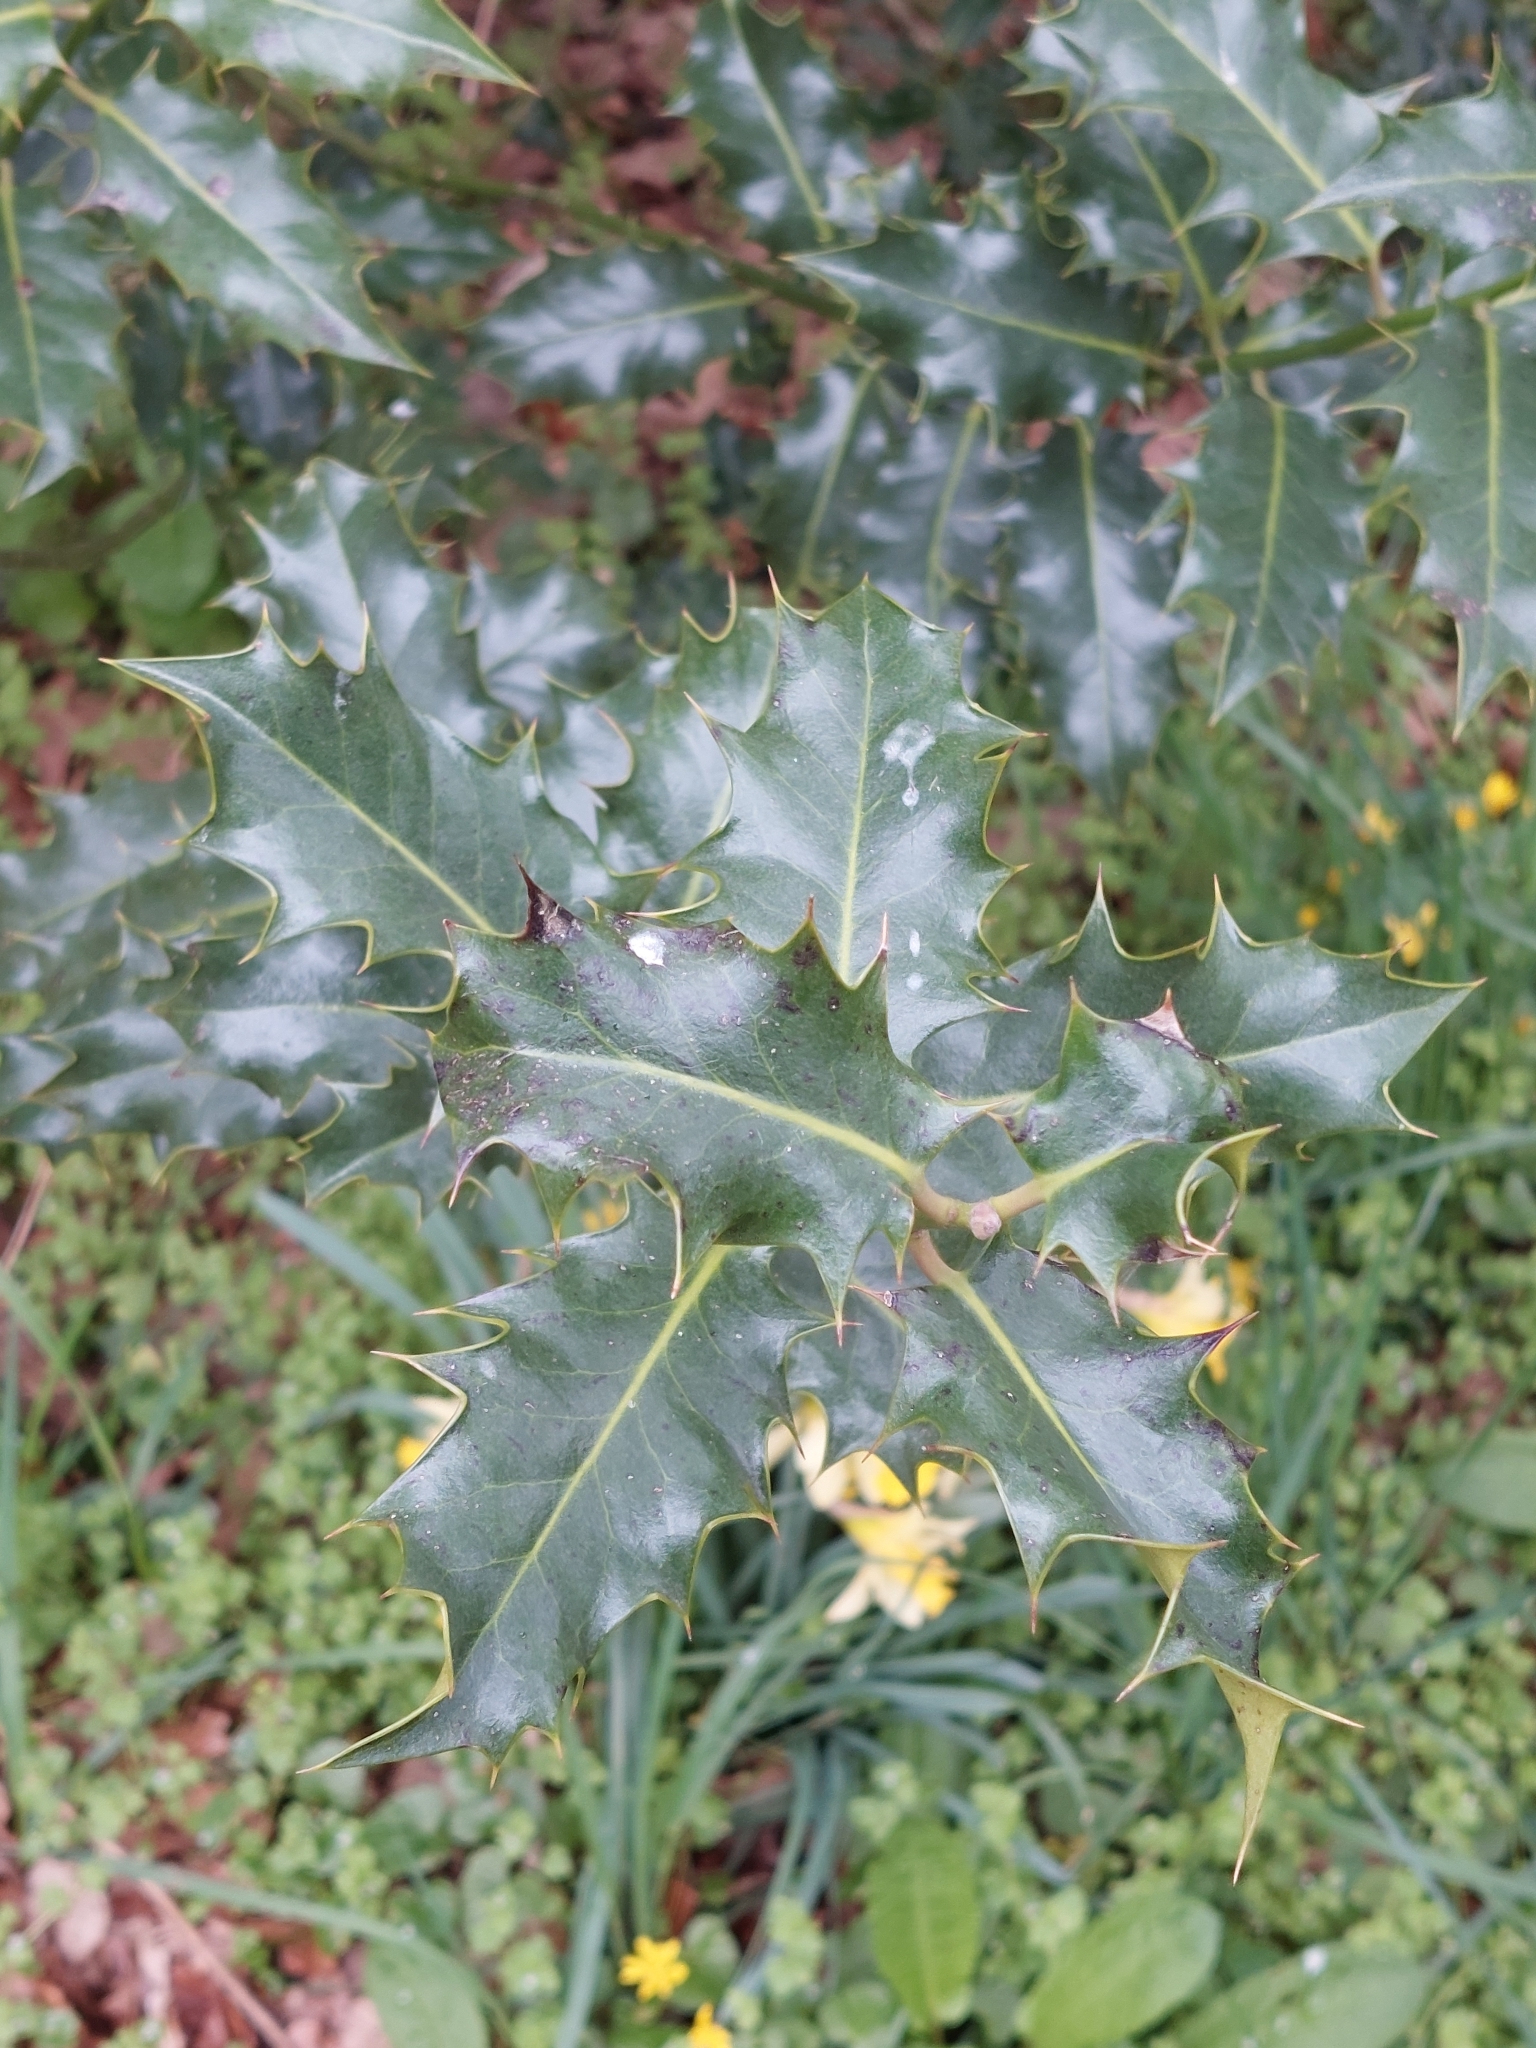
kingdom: Plantae
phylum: Tracheophyta
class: Magnoliopsida
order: Aquifoliales
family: Aquifoliaceae
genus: Ilex
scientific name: Ilex aquifolium
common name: English holly
